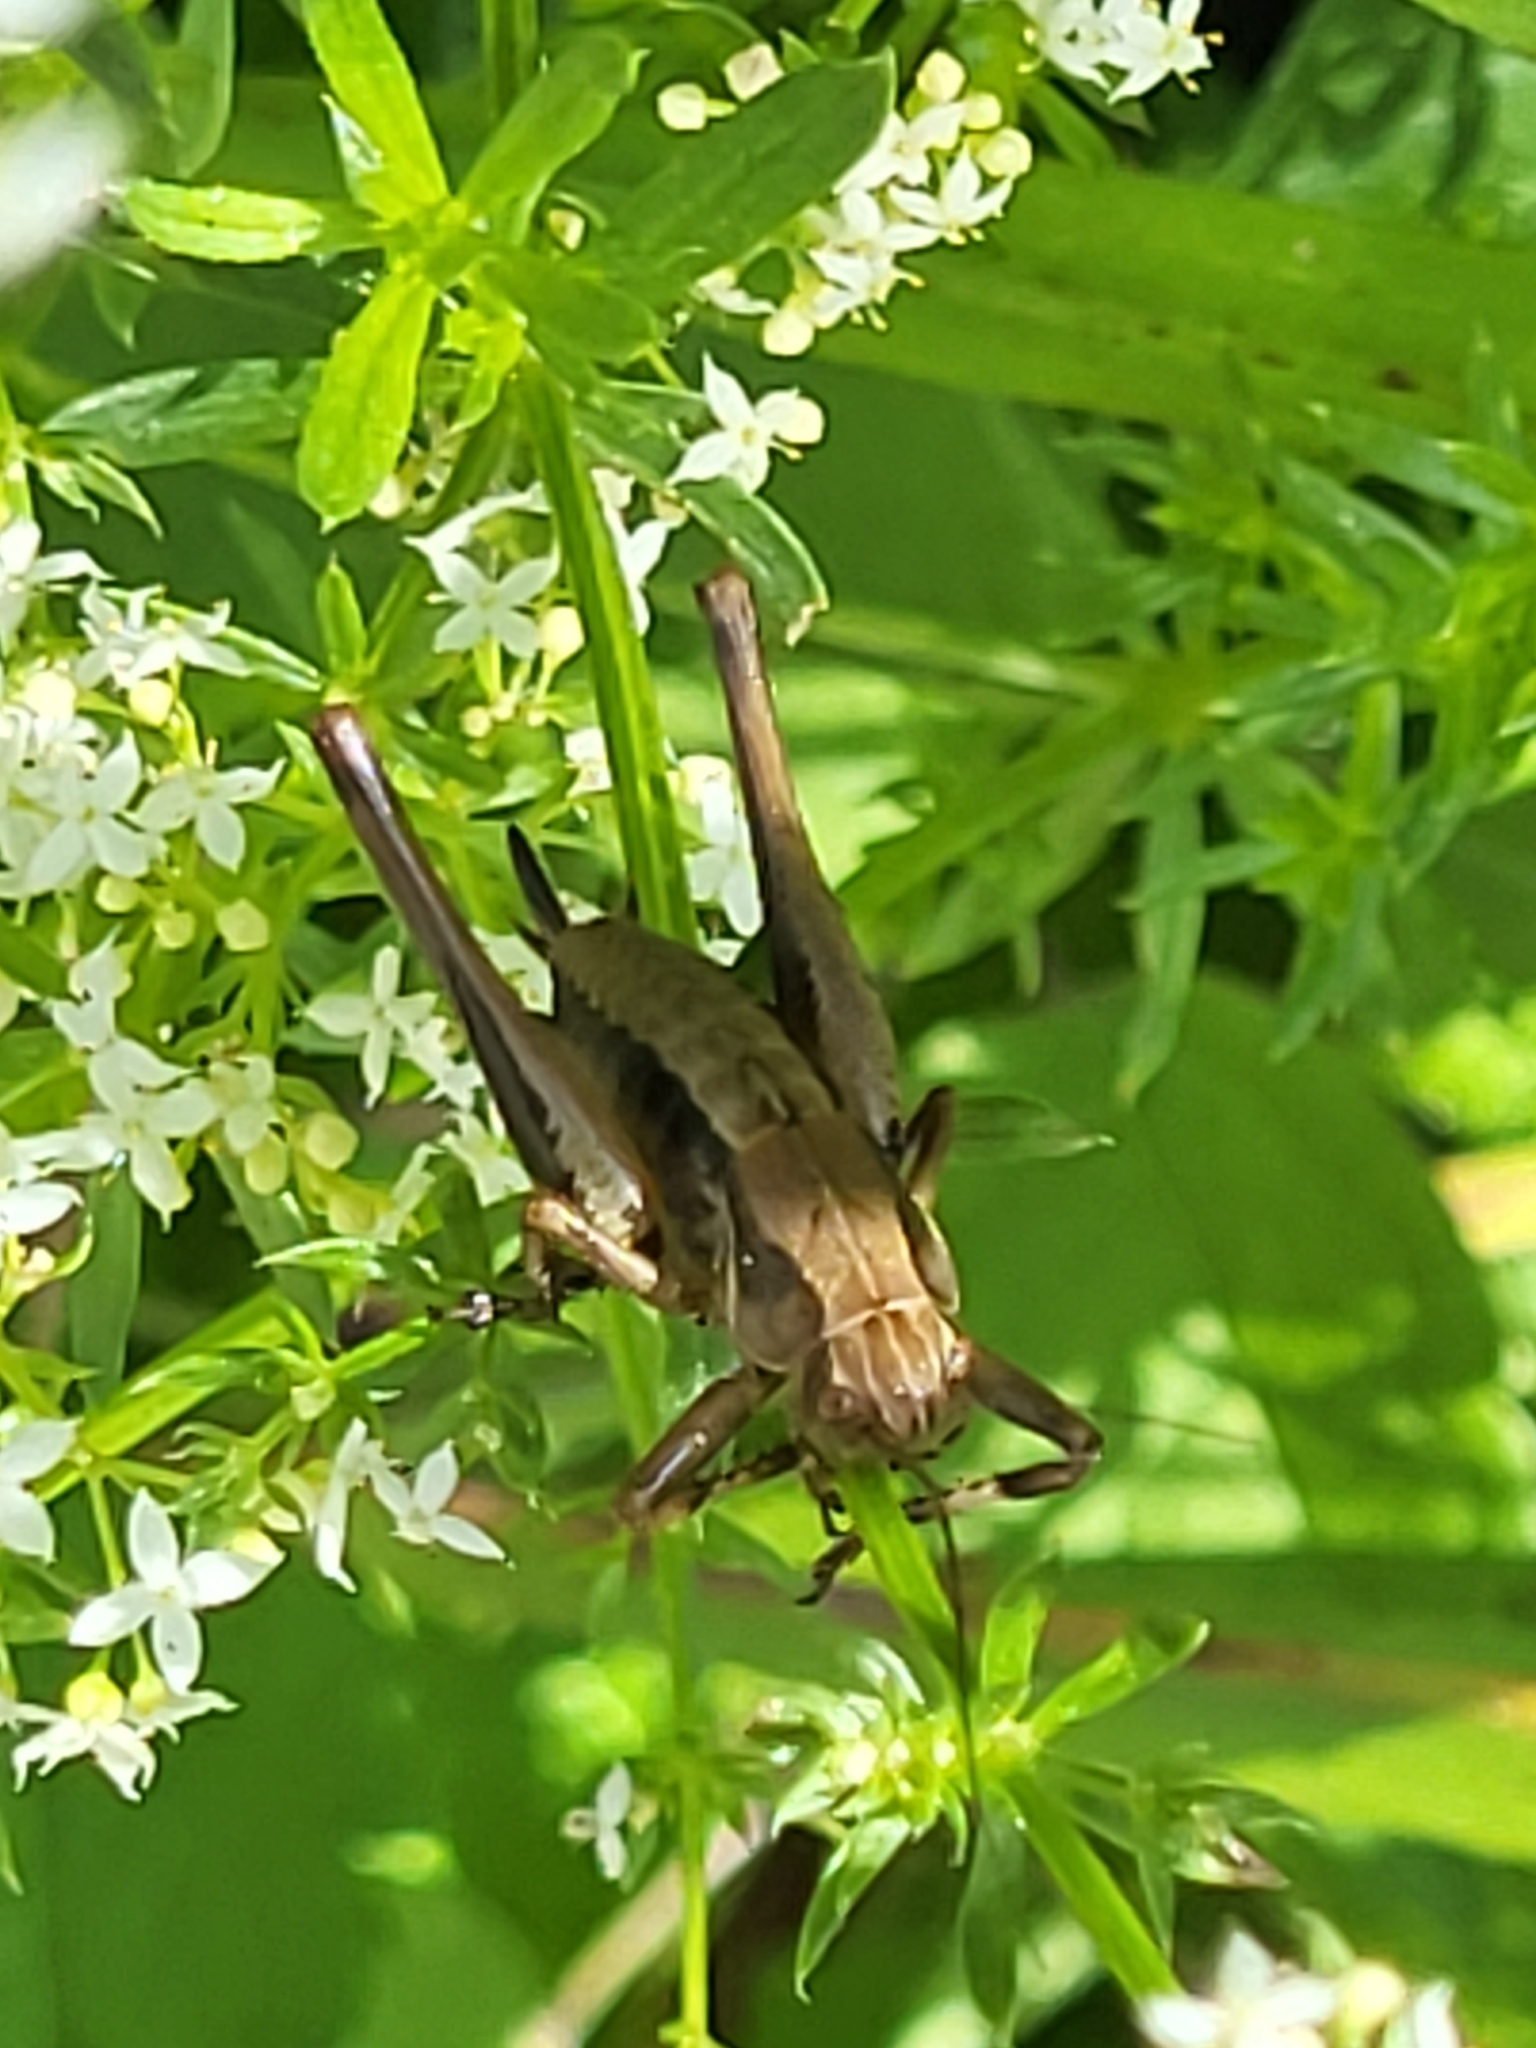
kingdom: Animalia
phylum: Arthropoda
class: Insecta
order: Orthoptera
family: Tettigoniidae
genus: Pholidoptera
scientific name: Pholidoptera griseoaptera
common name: Dark bush-cricket
